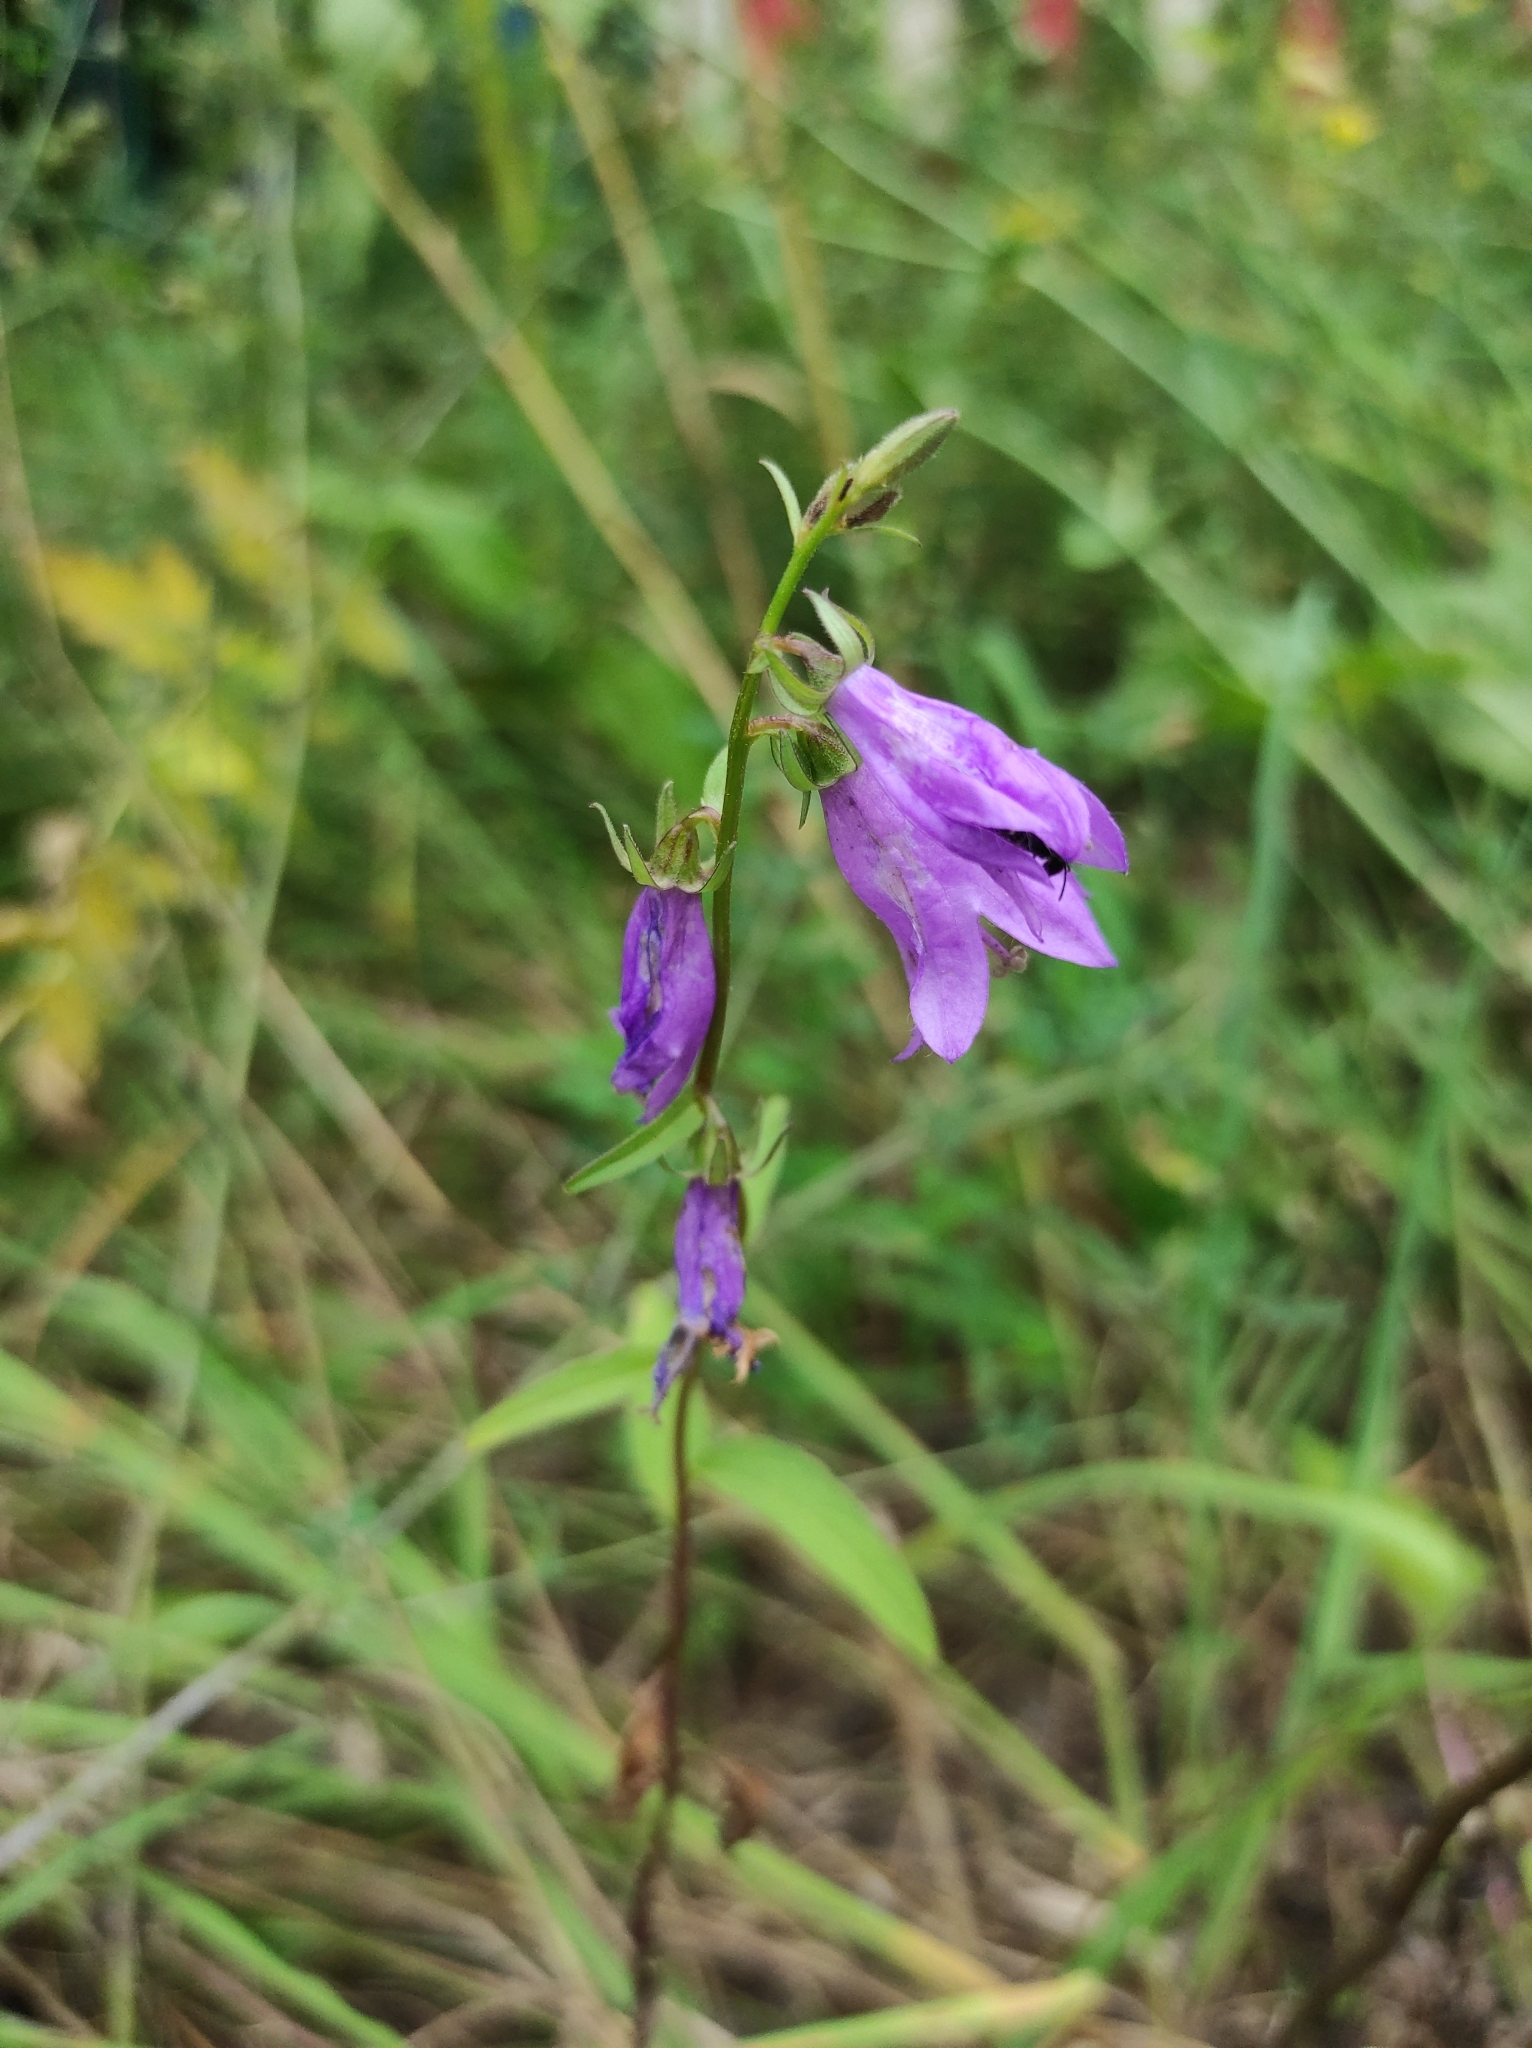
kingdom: Plantae
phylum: Tracheophyta
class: Magnoliopsida
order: Asterales
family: Campanulaceae
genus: Campanula
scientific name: Campanula rapunculoides
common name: Creeping bellflower
